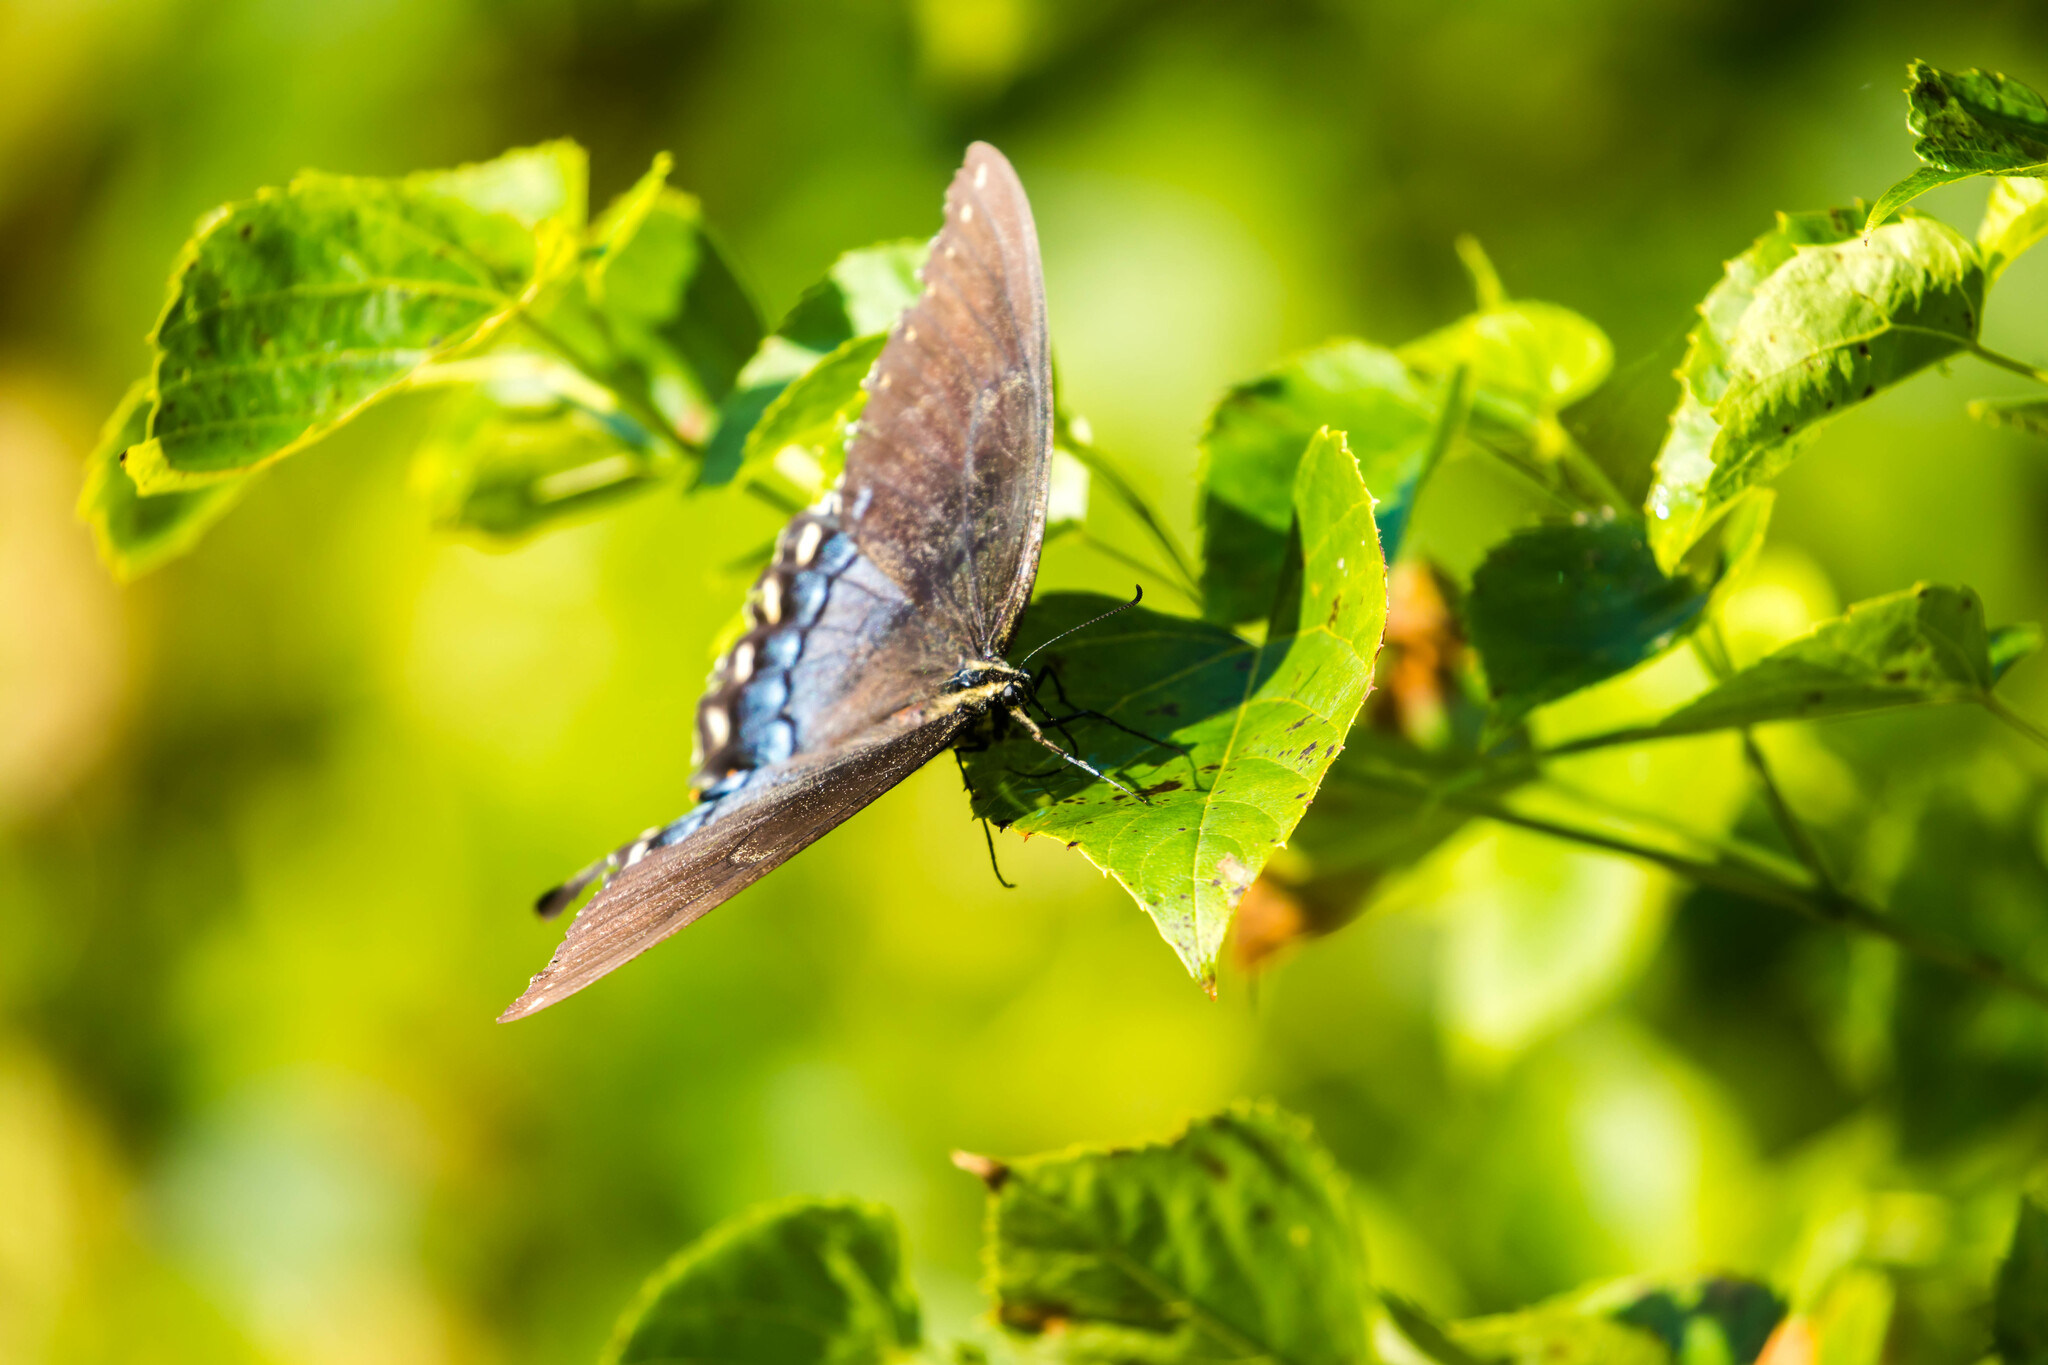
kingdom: Animalia
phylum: Arthropoda
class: Insecta
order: Lepidoptera
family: Papilionidae
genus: Papilio
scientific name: Papilio glaucus
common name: Tiger swallowtail
